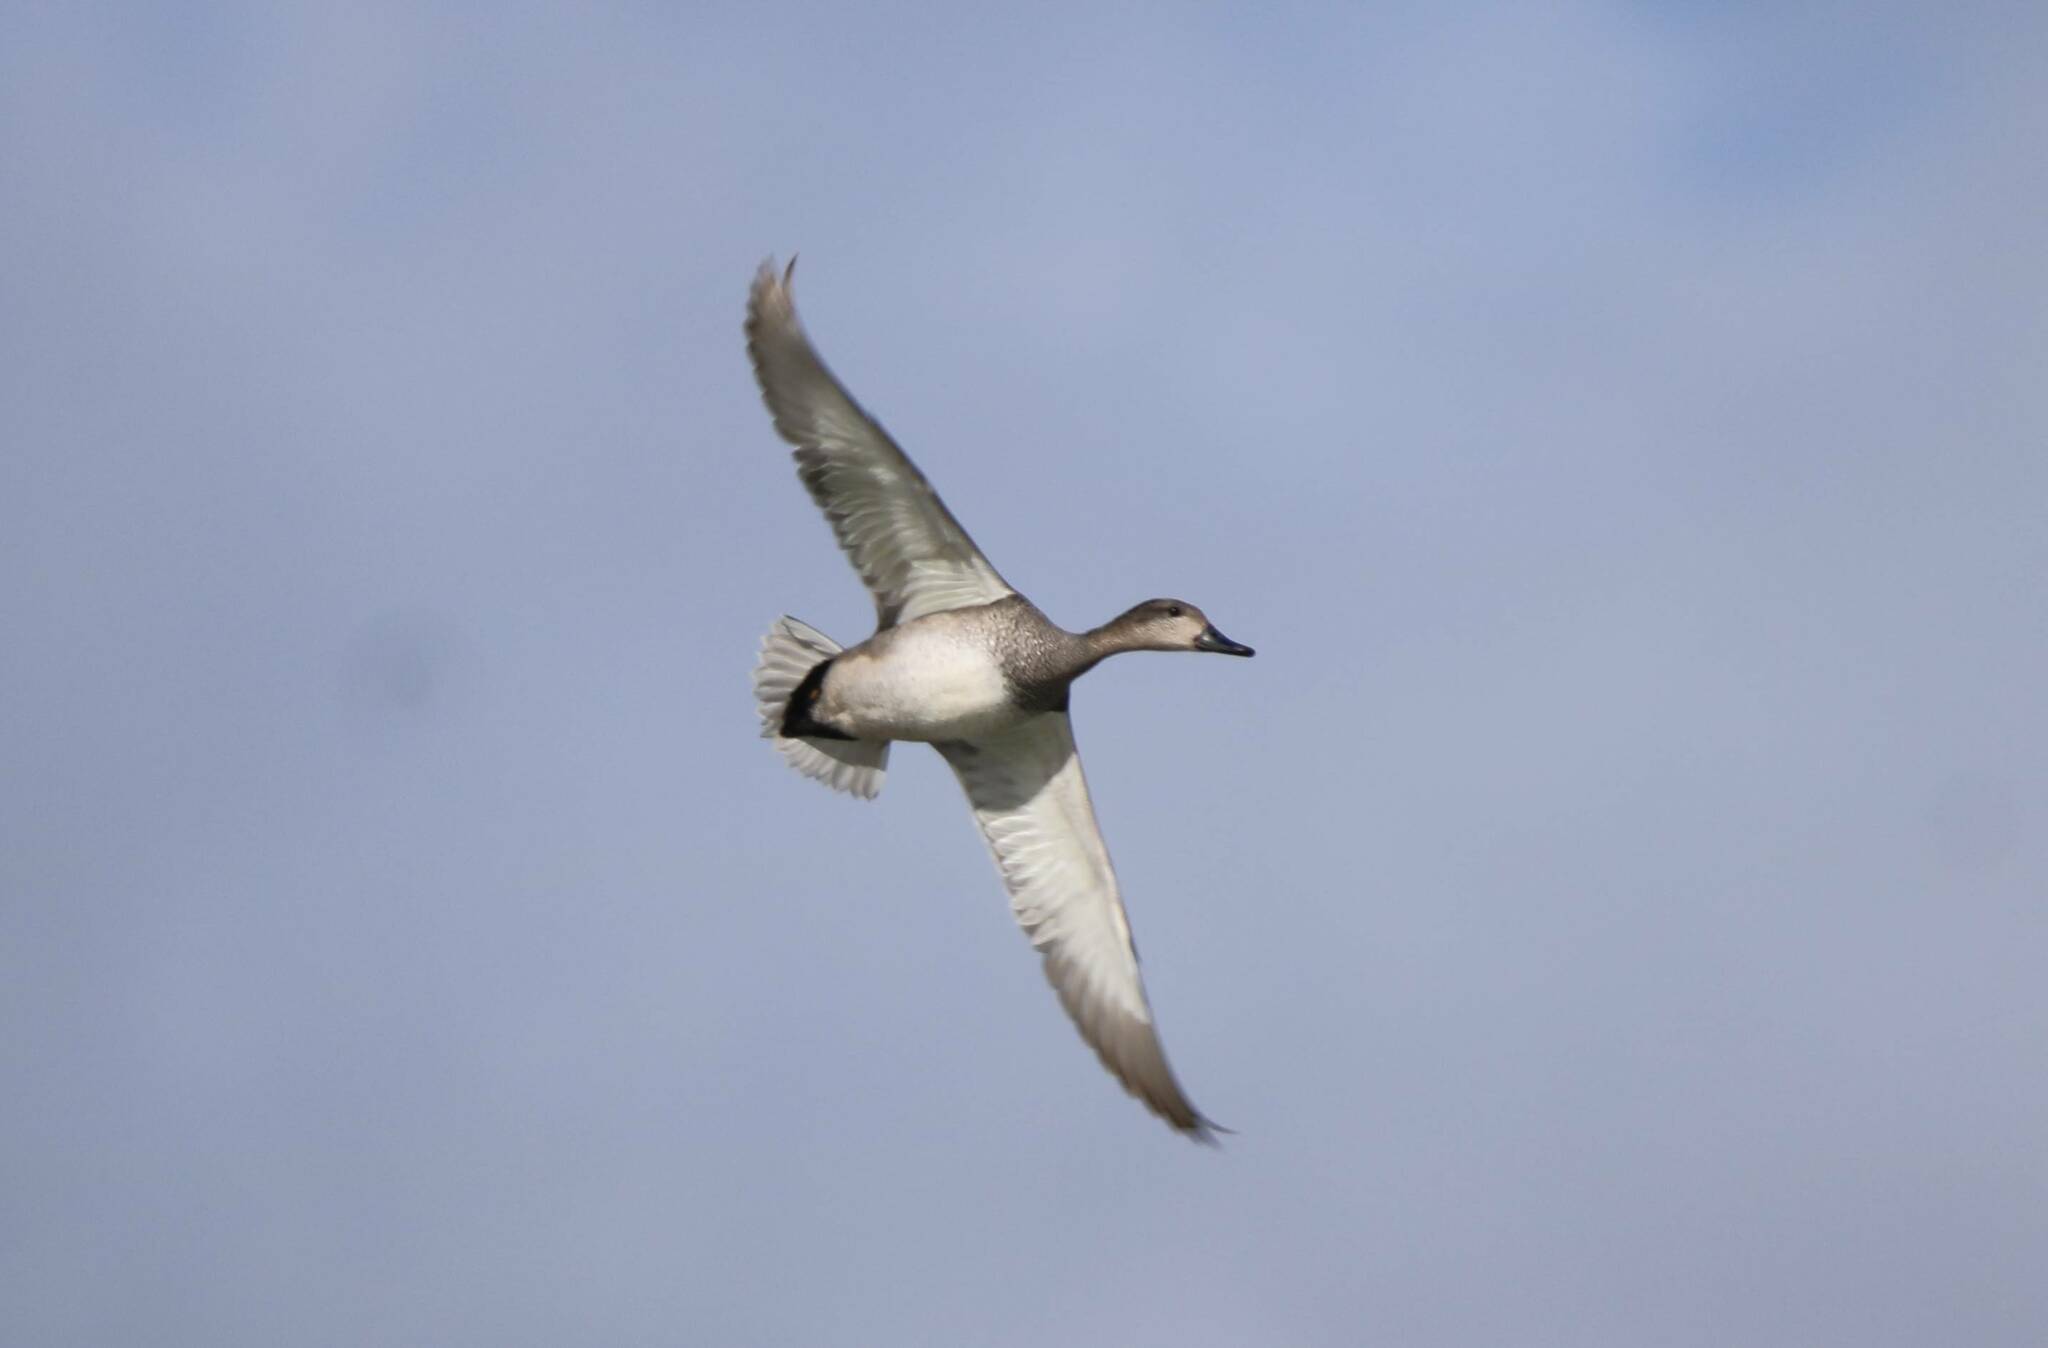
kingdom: Animalia
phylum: Chordata
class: Aves
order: Anseriformes
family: Anatidae
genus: Mareca
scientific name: Mareca strepera
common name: Gadwall
